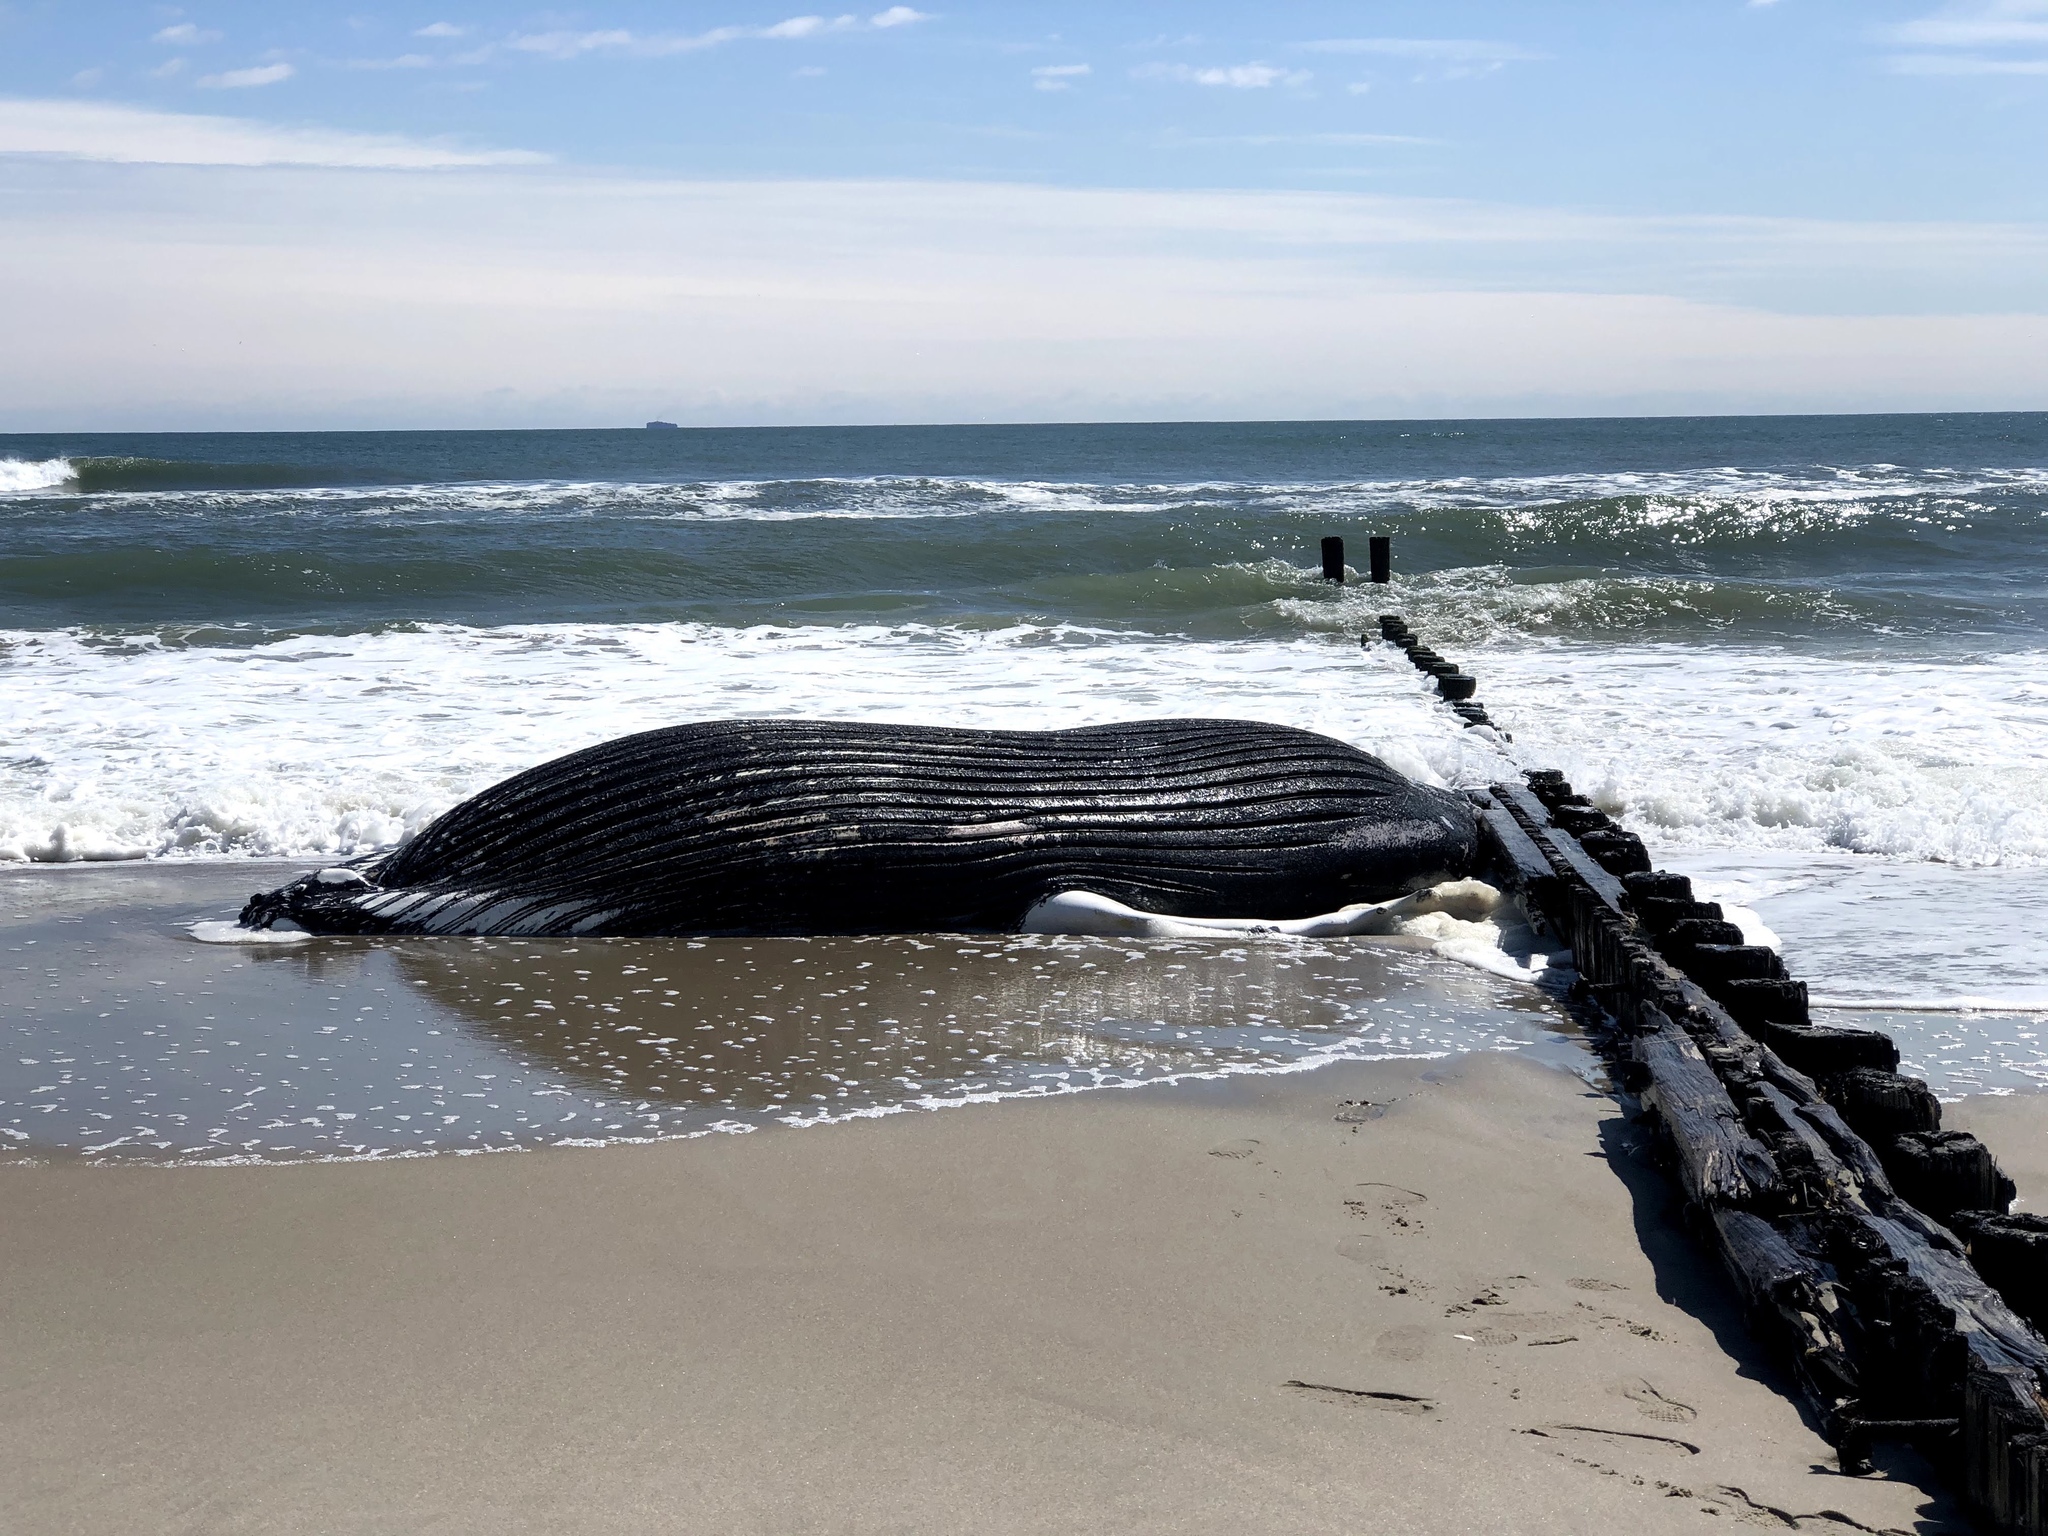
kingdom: Animalia
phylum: Chordata
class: Mammalia
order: Cetacea
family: Balaenopteridae
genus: Megaptera
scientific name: Megaptera novaeangliae
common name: Humpback whale
